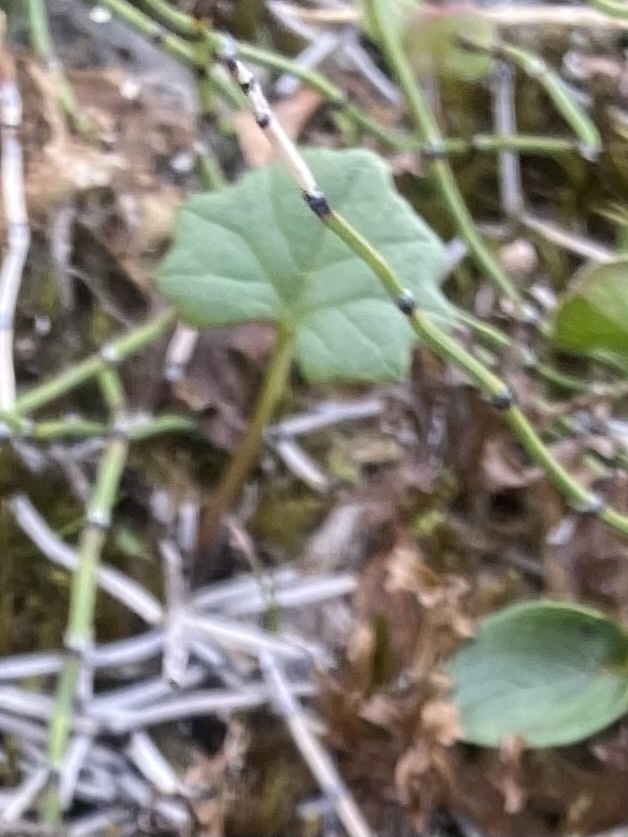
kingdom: Plantae
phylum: Tracheophyta
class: Magnoliopsida
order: Asterales
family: Asteraceae
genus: Endocellion
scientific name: Endocellion glaciale
